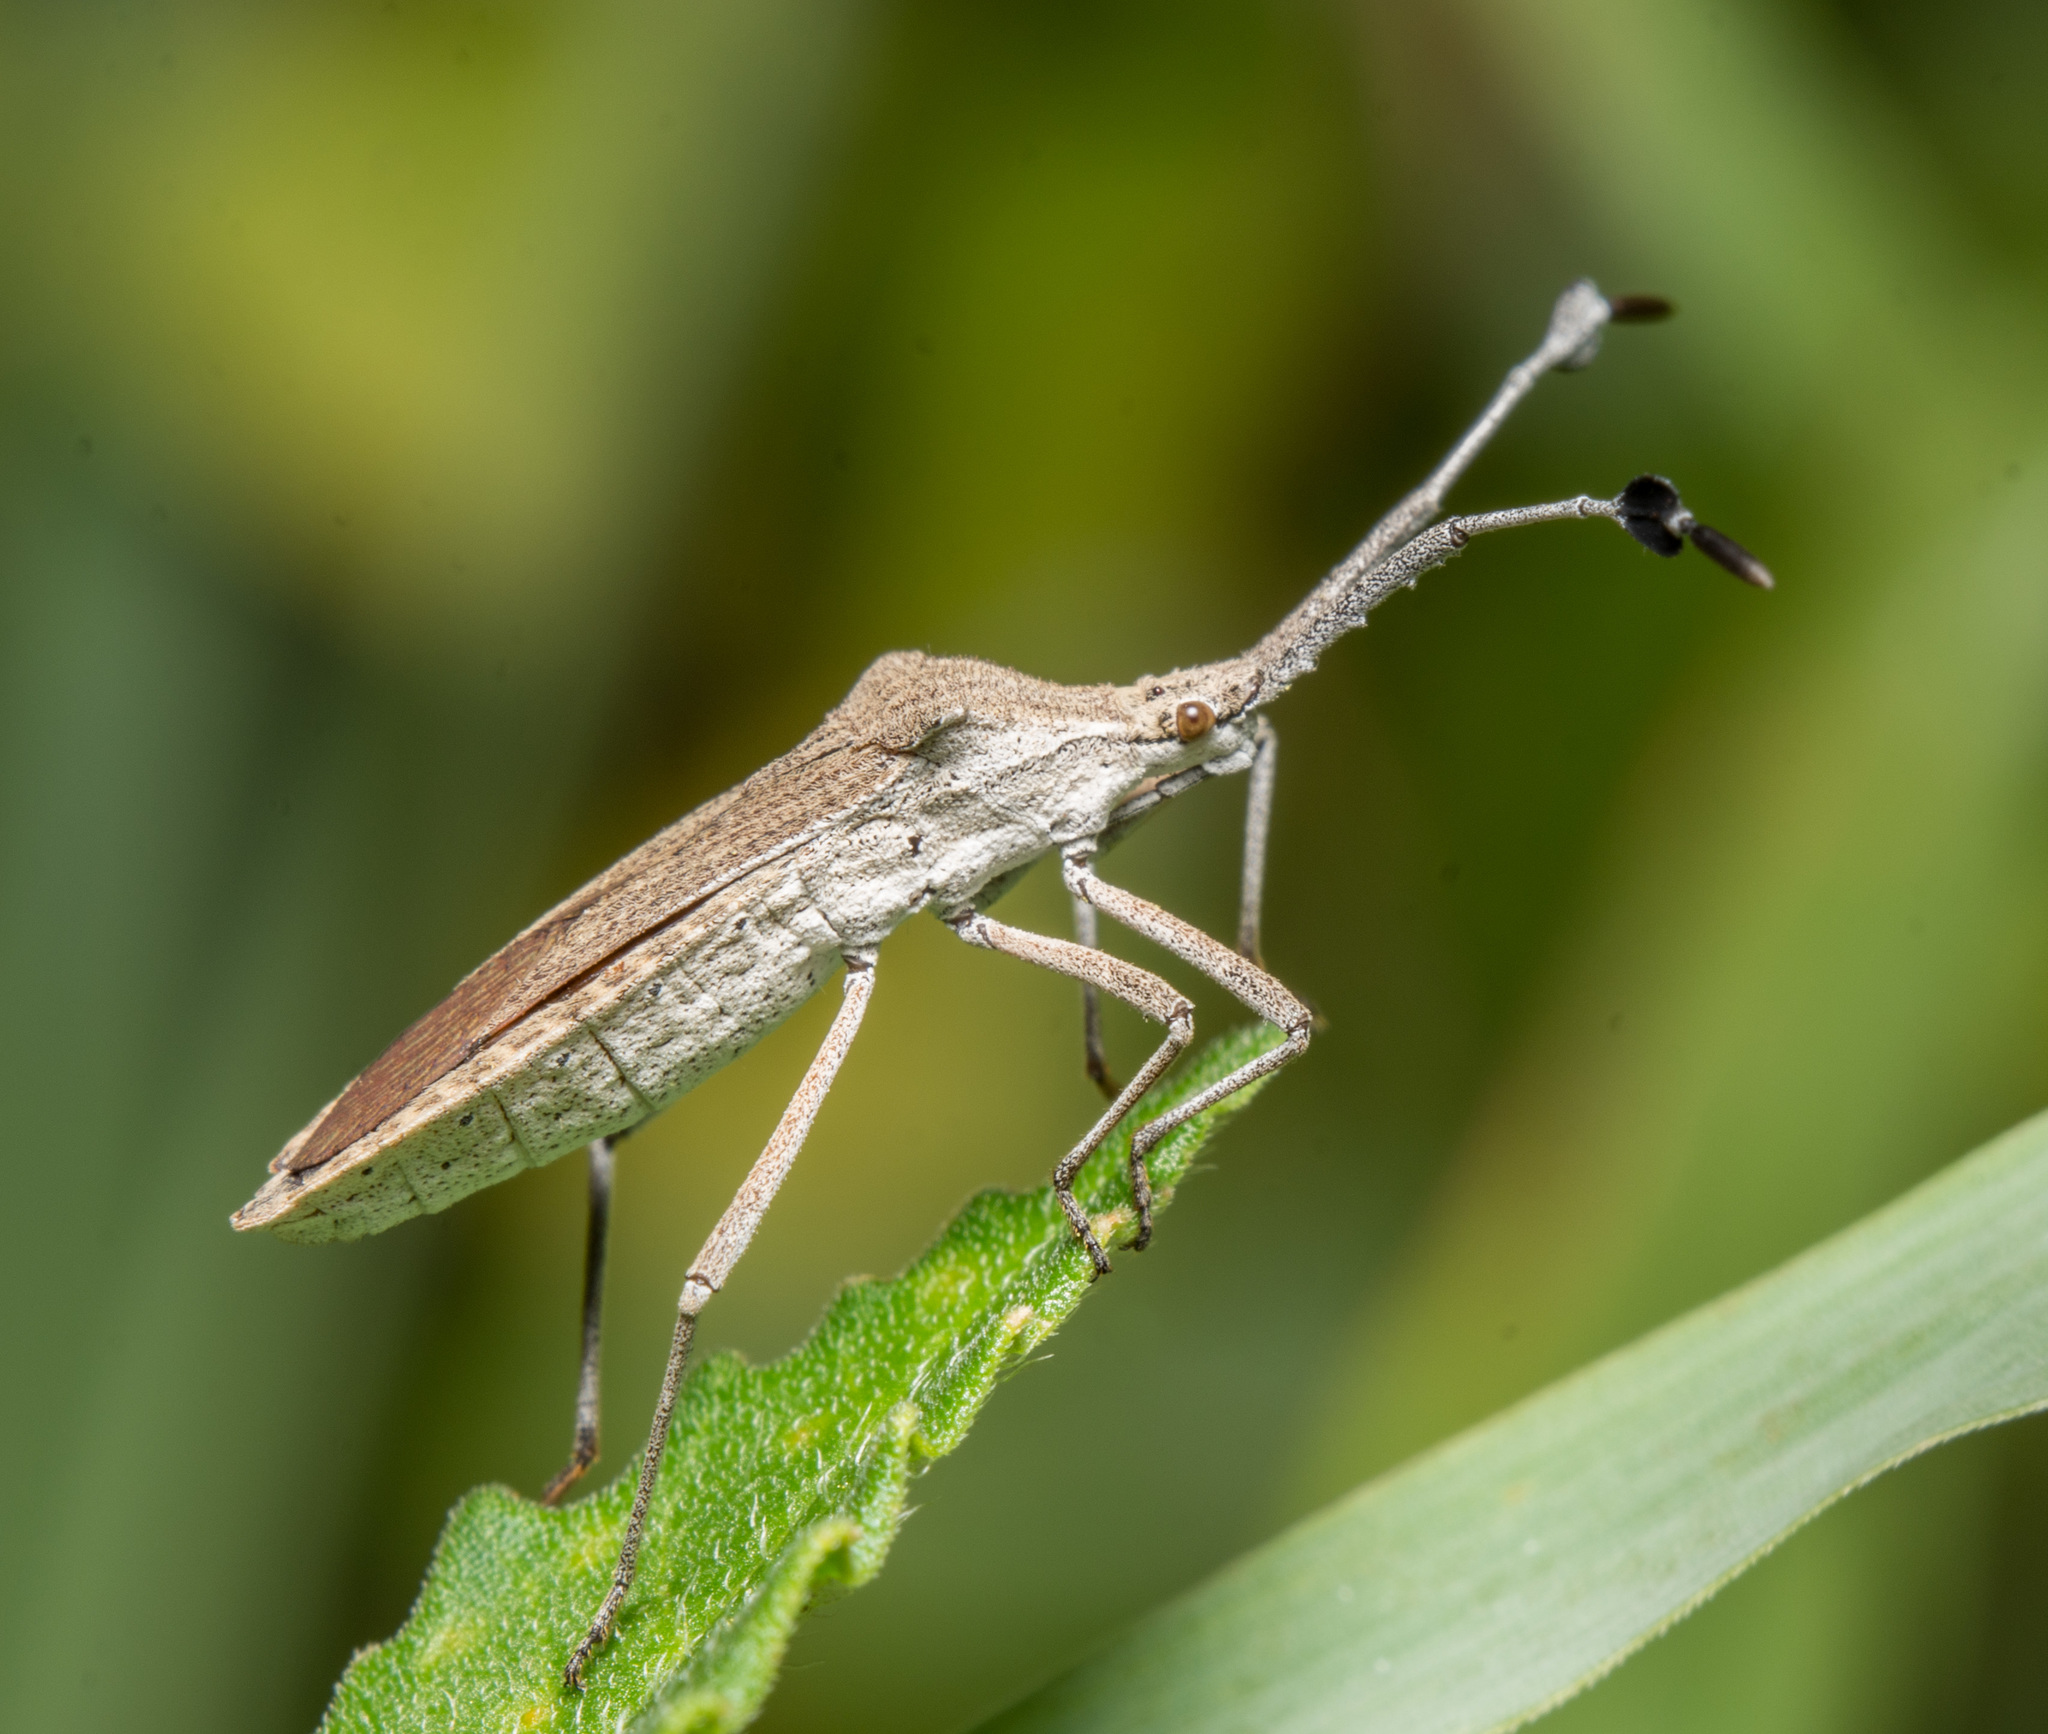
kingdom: Animalia
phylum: Arthropoda
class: Insecta
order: Hemiptera
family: Coreidae
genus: Chariesterus
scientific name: Chariesterus antennator
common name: Flat horned coreid
